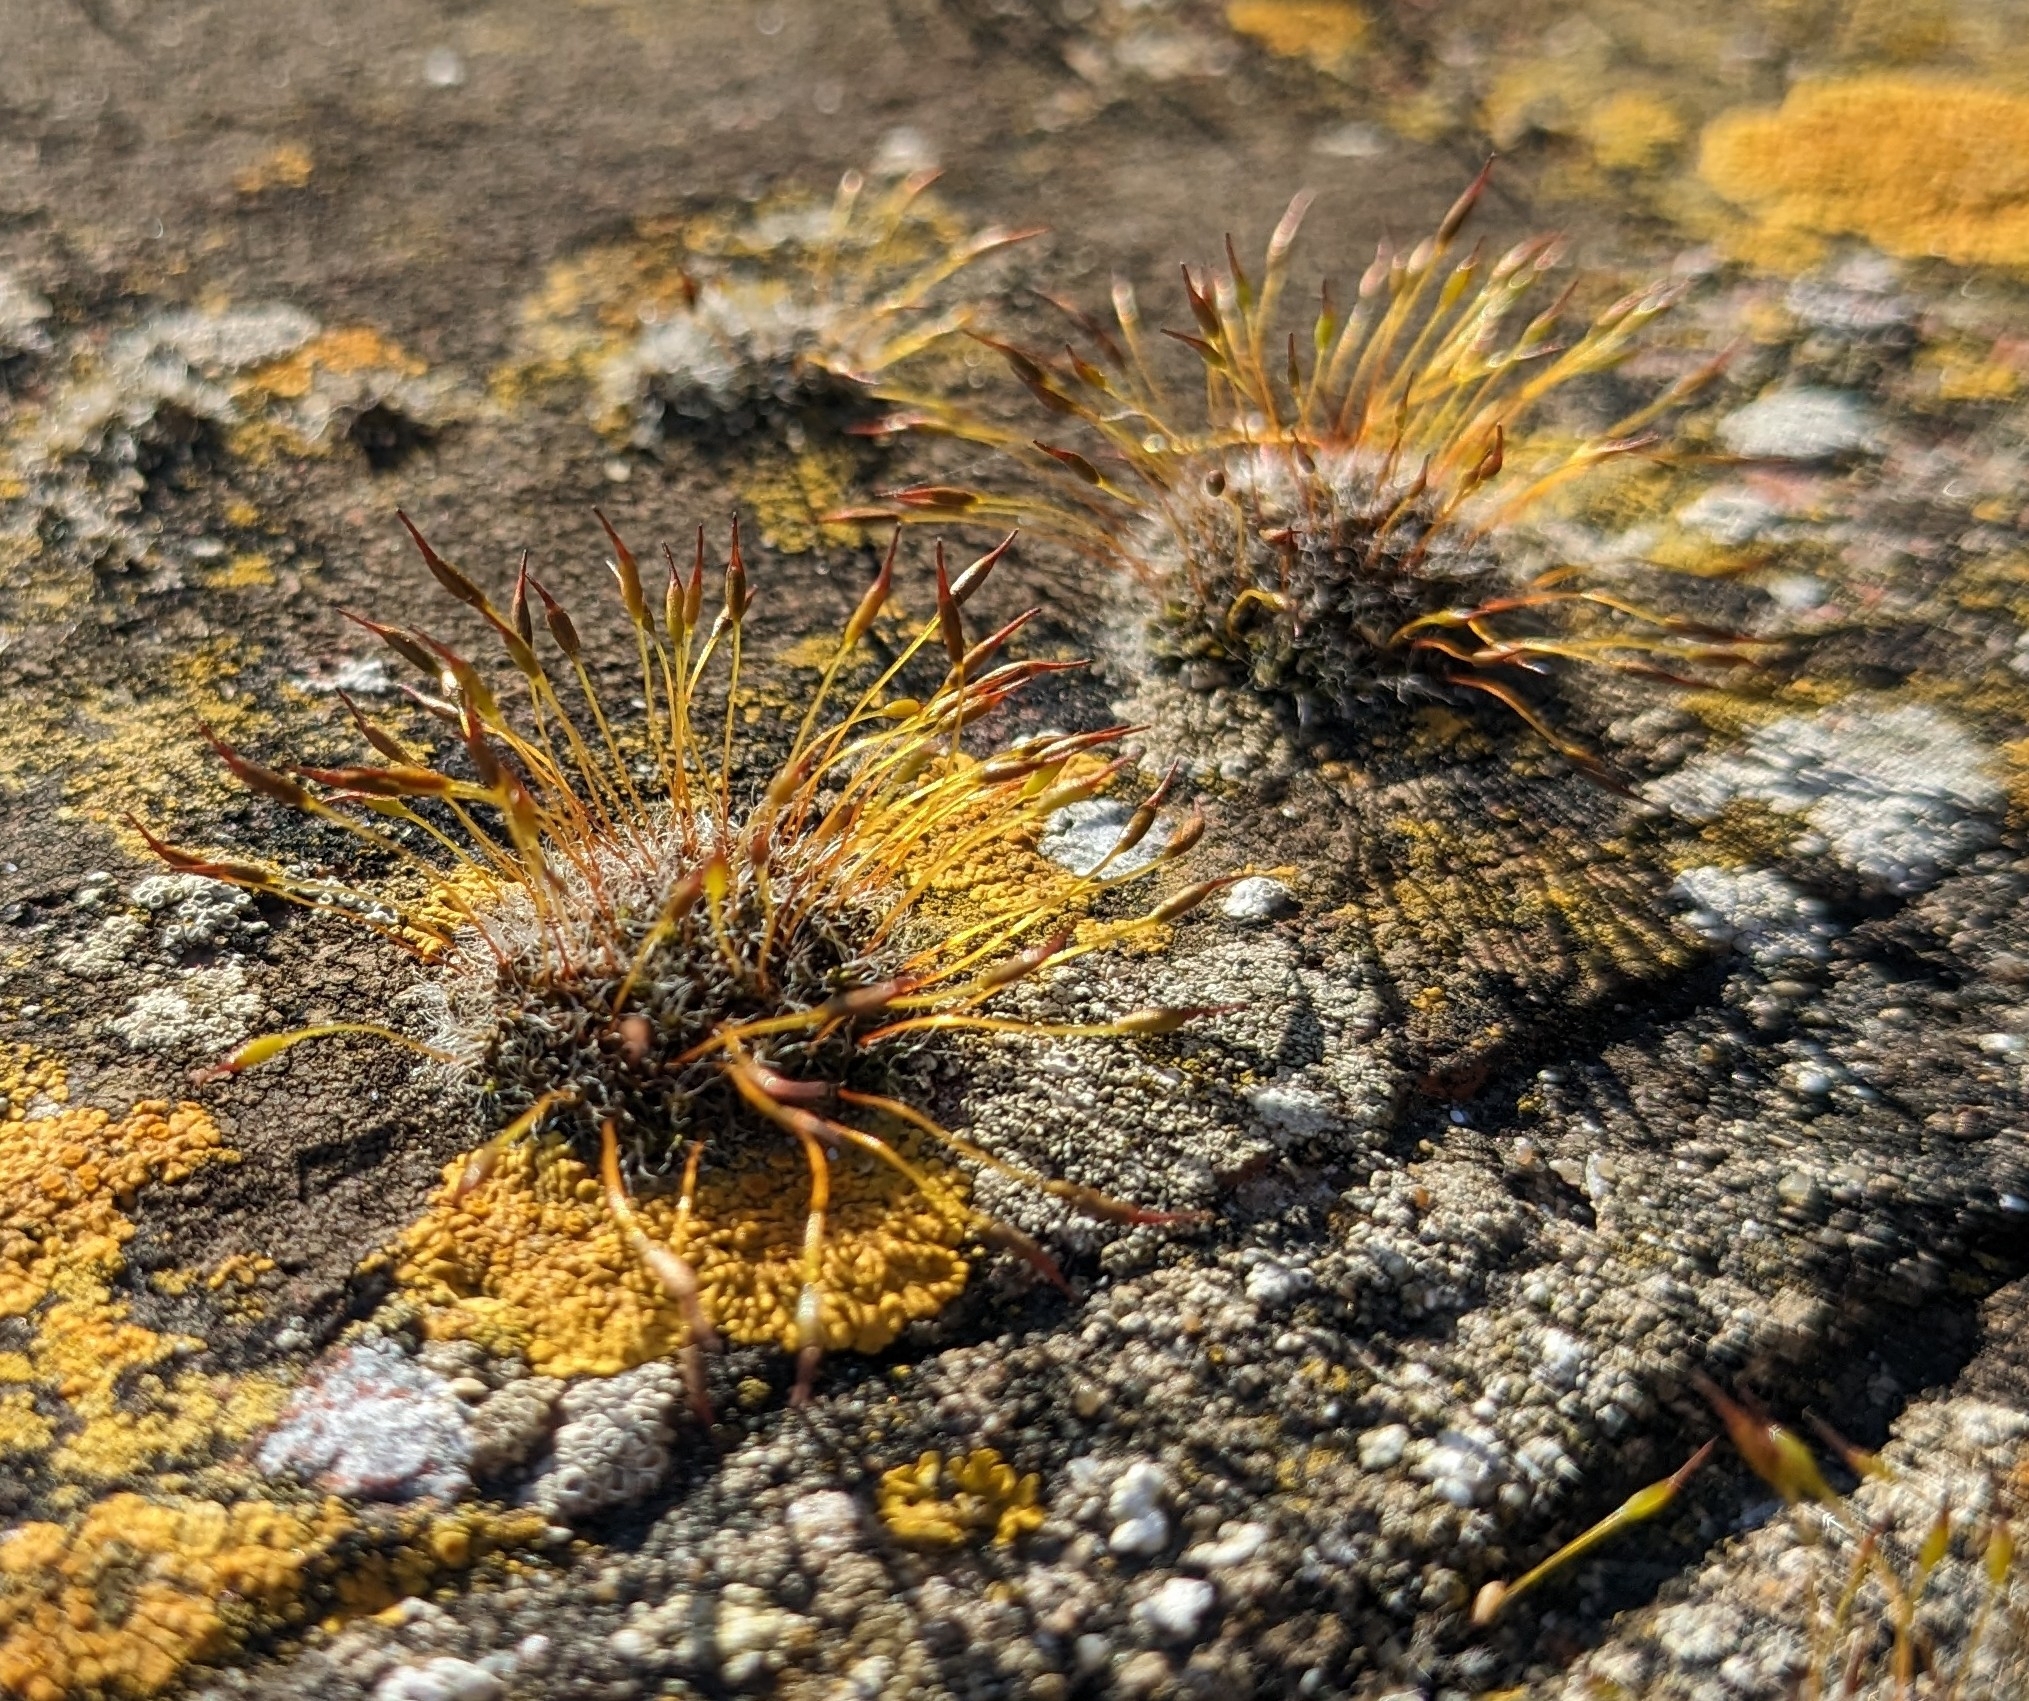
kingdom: Plantae
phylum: Bryophyta
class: Bryopsida
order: Pottiales
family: Pottiaceae
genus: Tortula
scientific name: Tortula muralis
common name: Wall screw-moss
